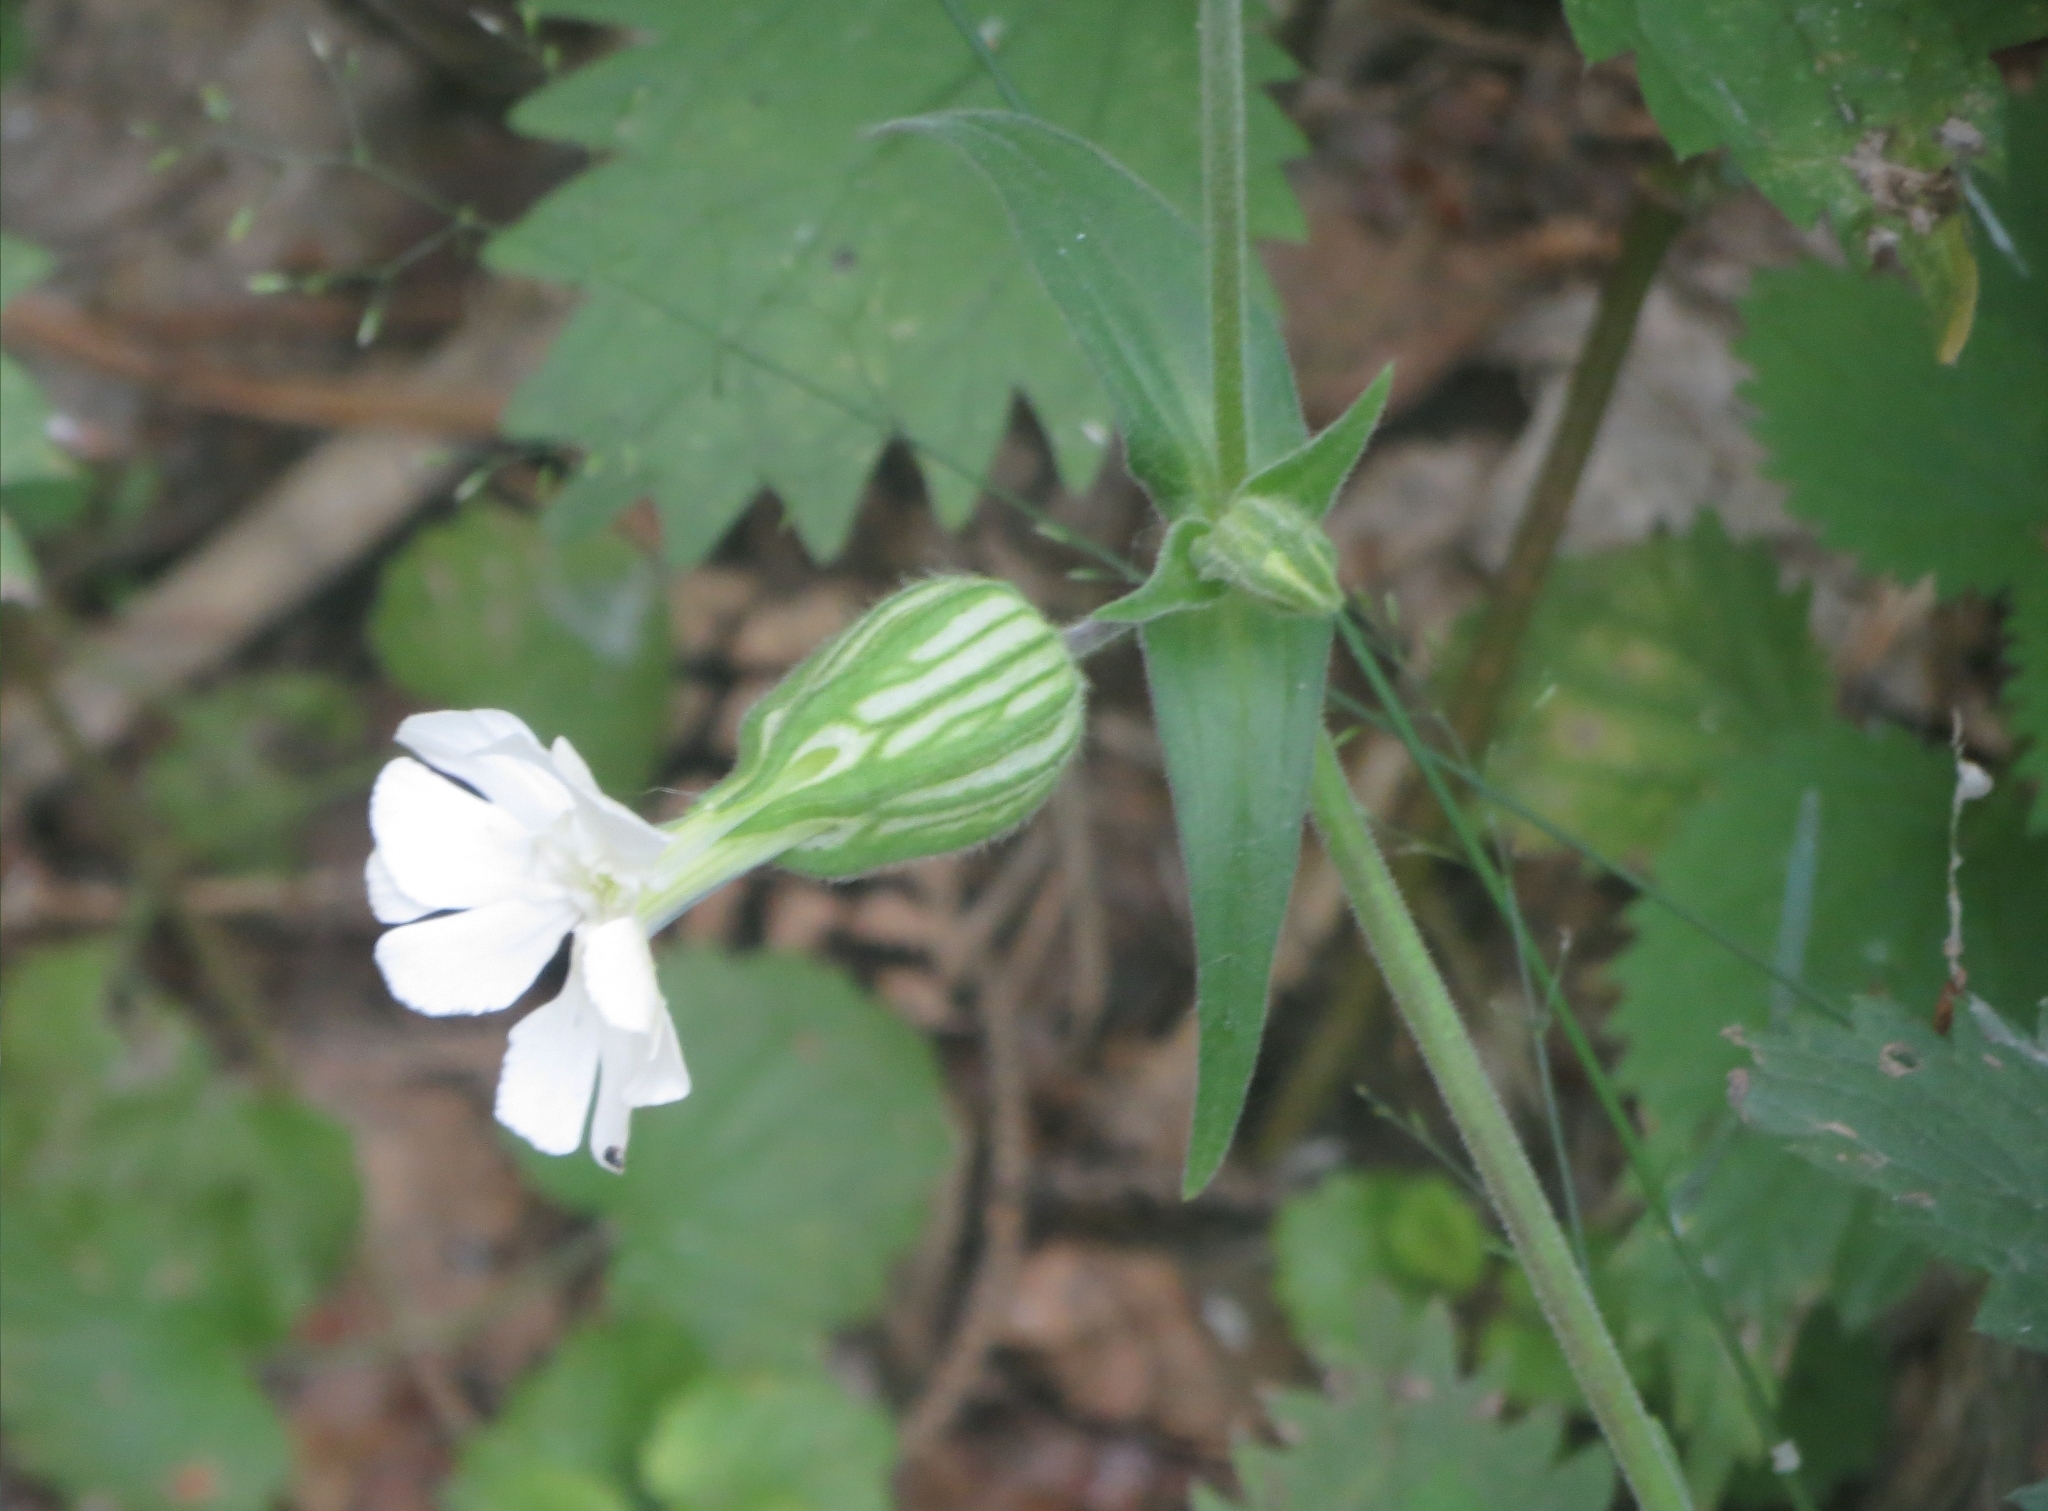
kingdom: Plantae
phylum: Tracheophyta
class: Magnoliopsida
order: Caryophyllales
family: Caryophyllaceae
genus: Silene
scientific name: Silene latifolia
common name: White campion
